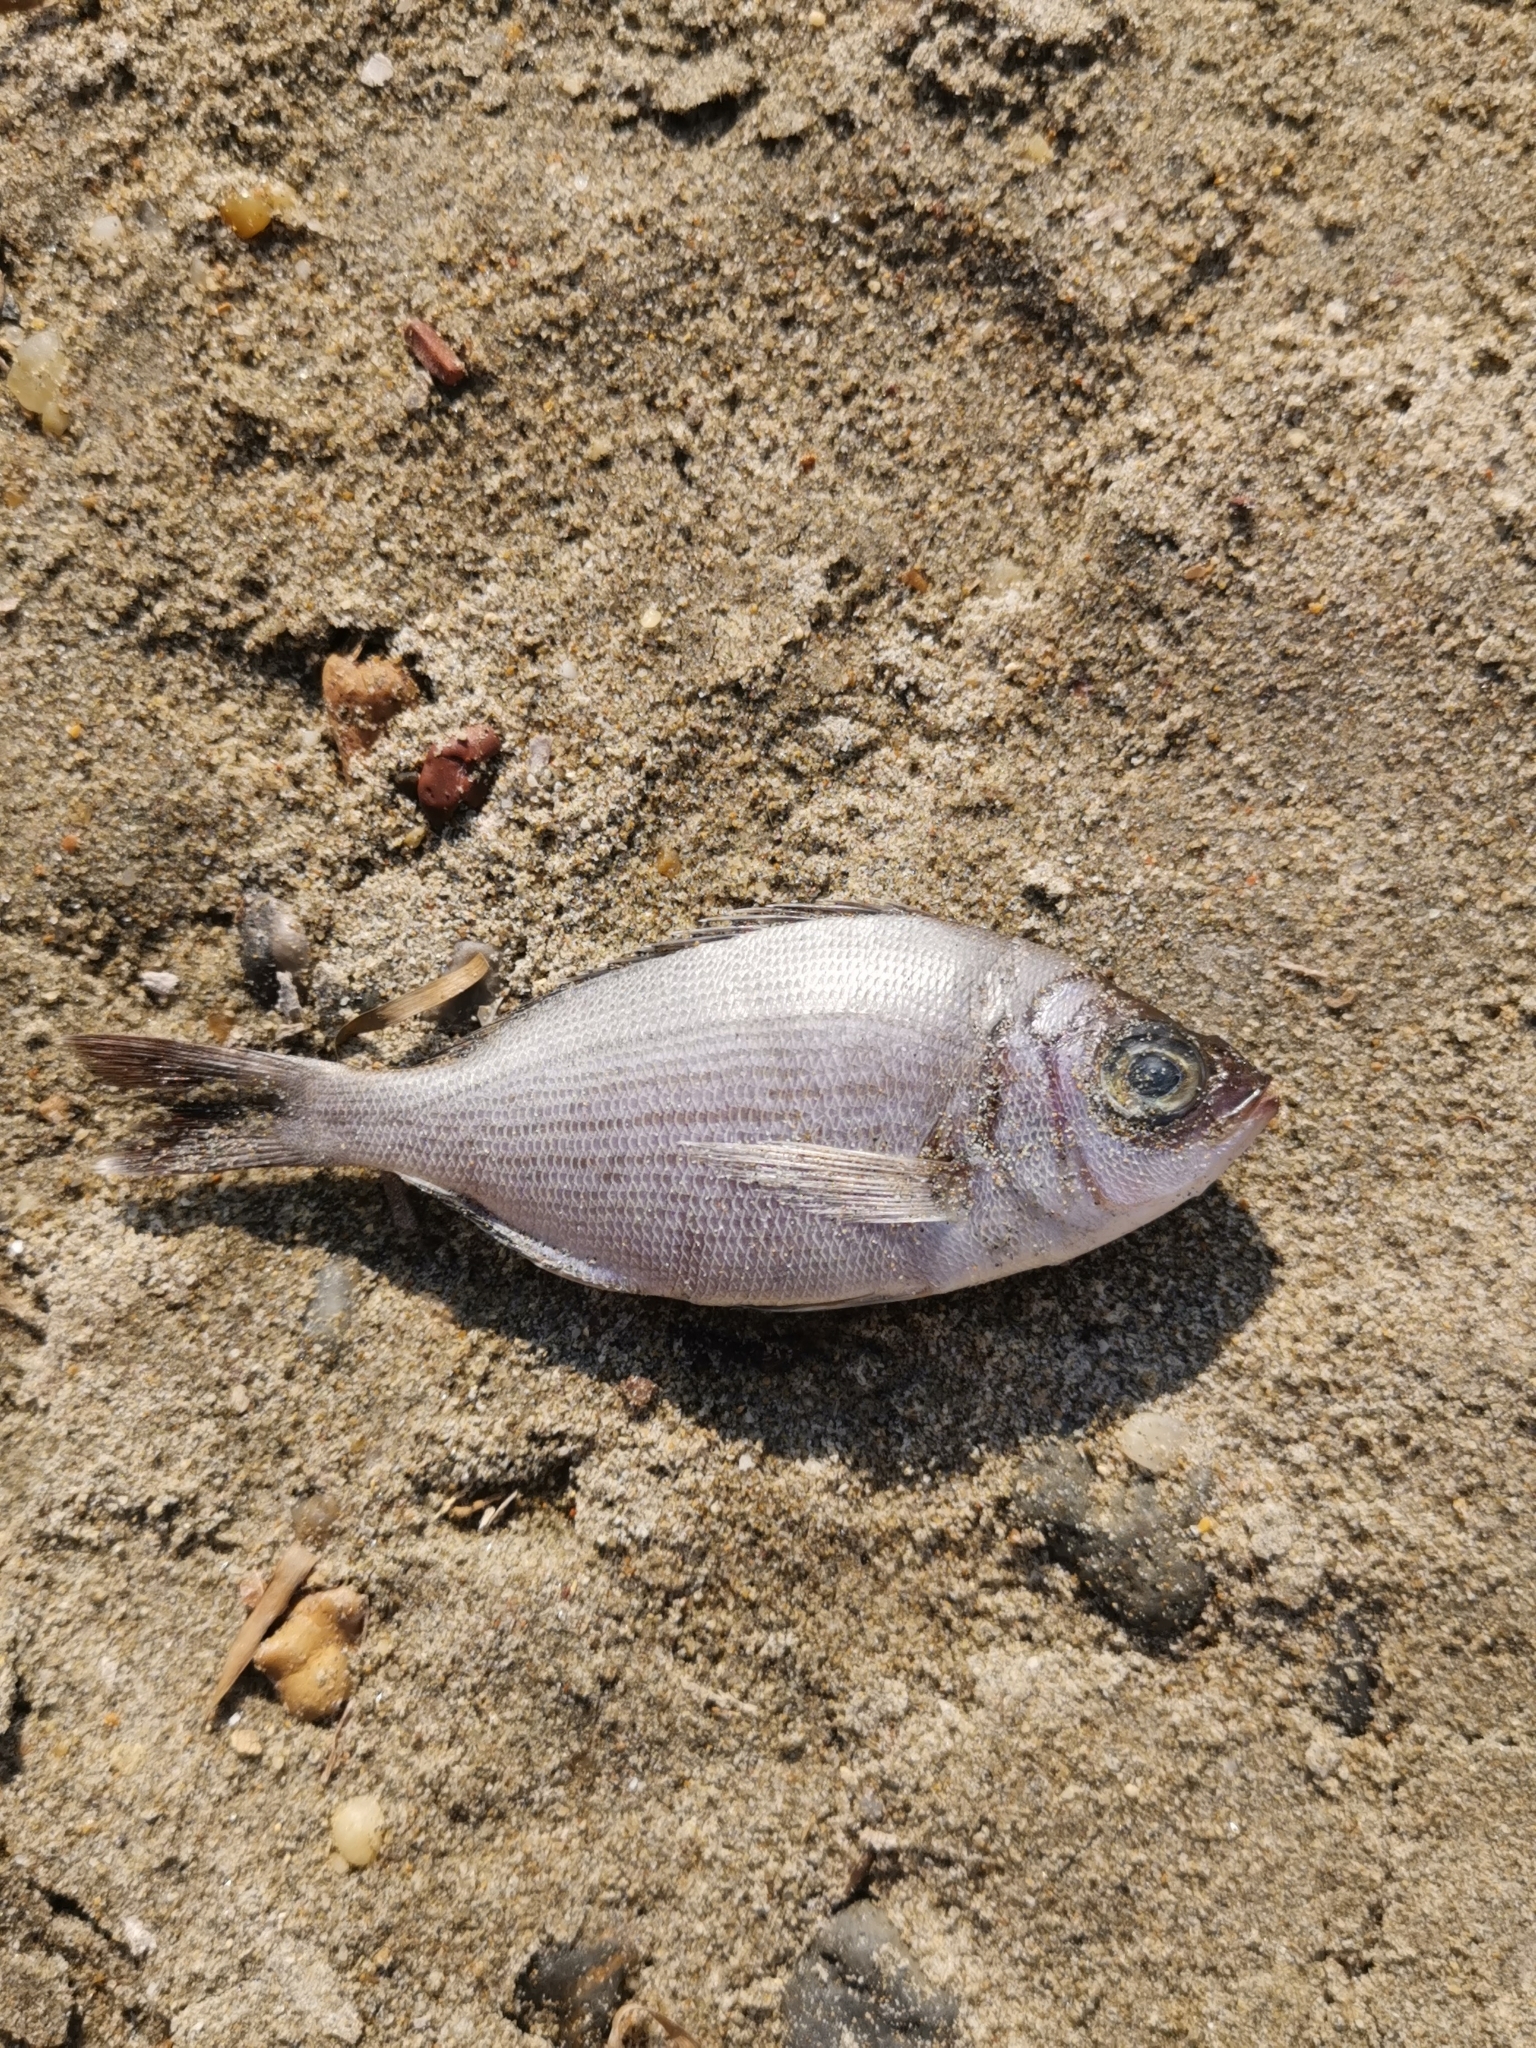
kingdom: Animalia
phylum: Chordata
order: Perciformes
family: Sparidae
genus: Spondyliosoma
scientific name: Spondyliosoma cantharus
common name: Black seabream
